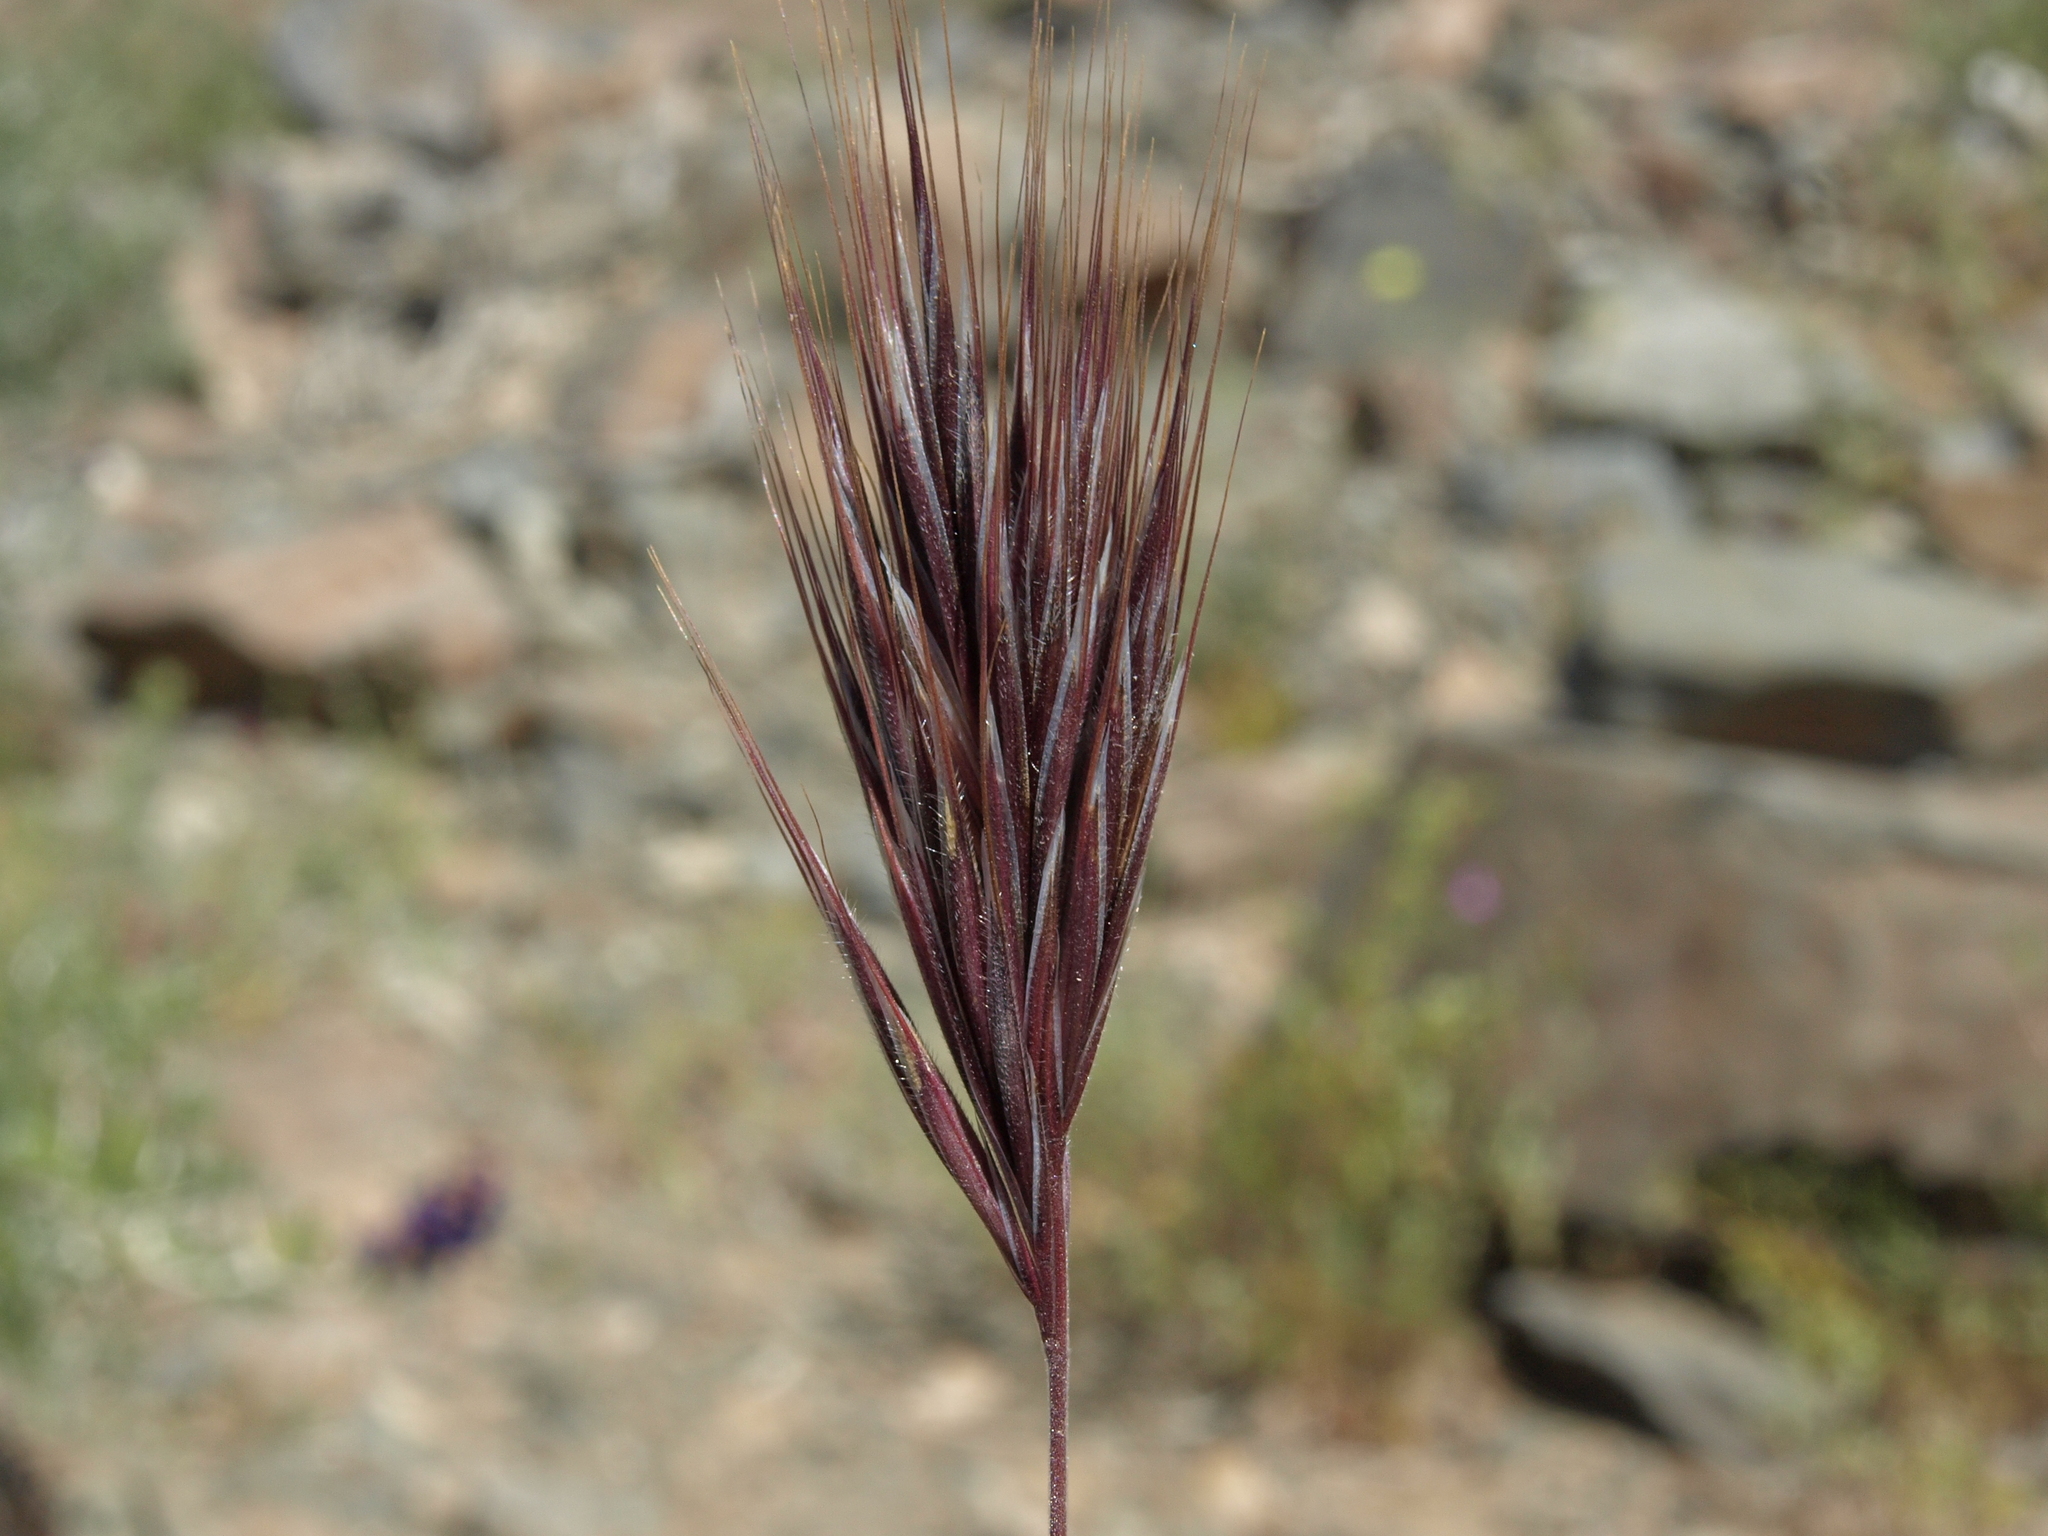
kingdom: Plantae
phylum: Tracheophyta
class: Liliopsida
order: Poales
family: Poaceae
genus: Bromus
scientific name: Bromus rubens
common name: Red brome
